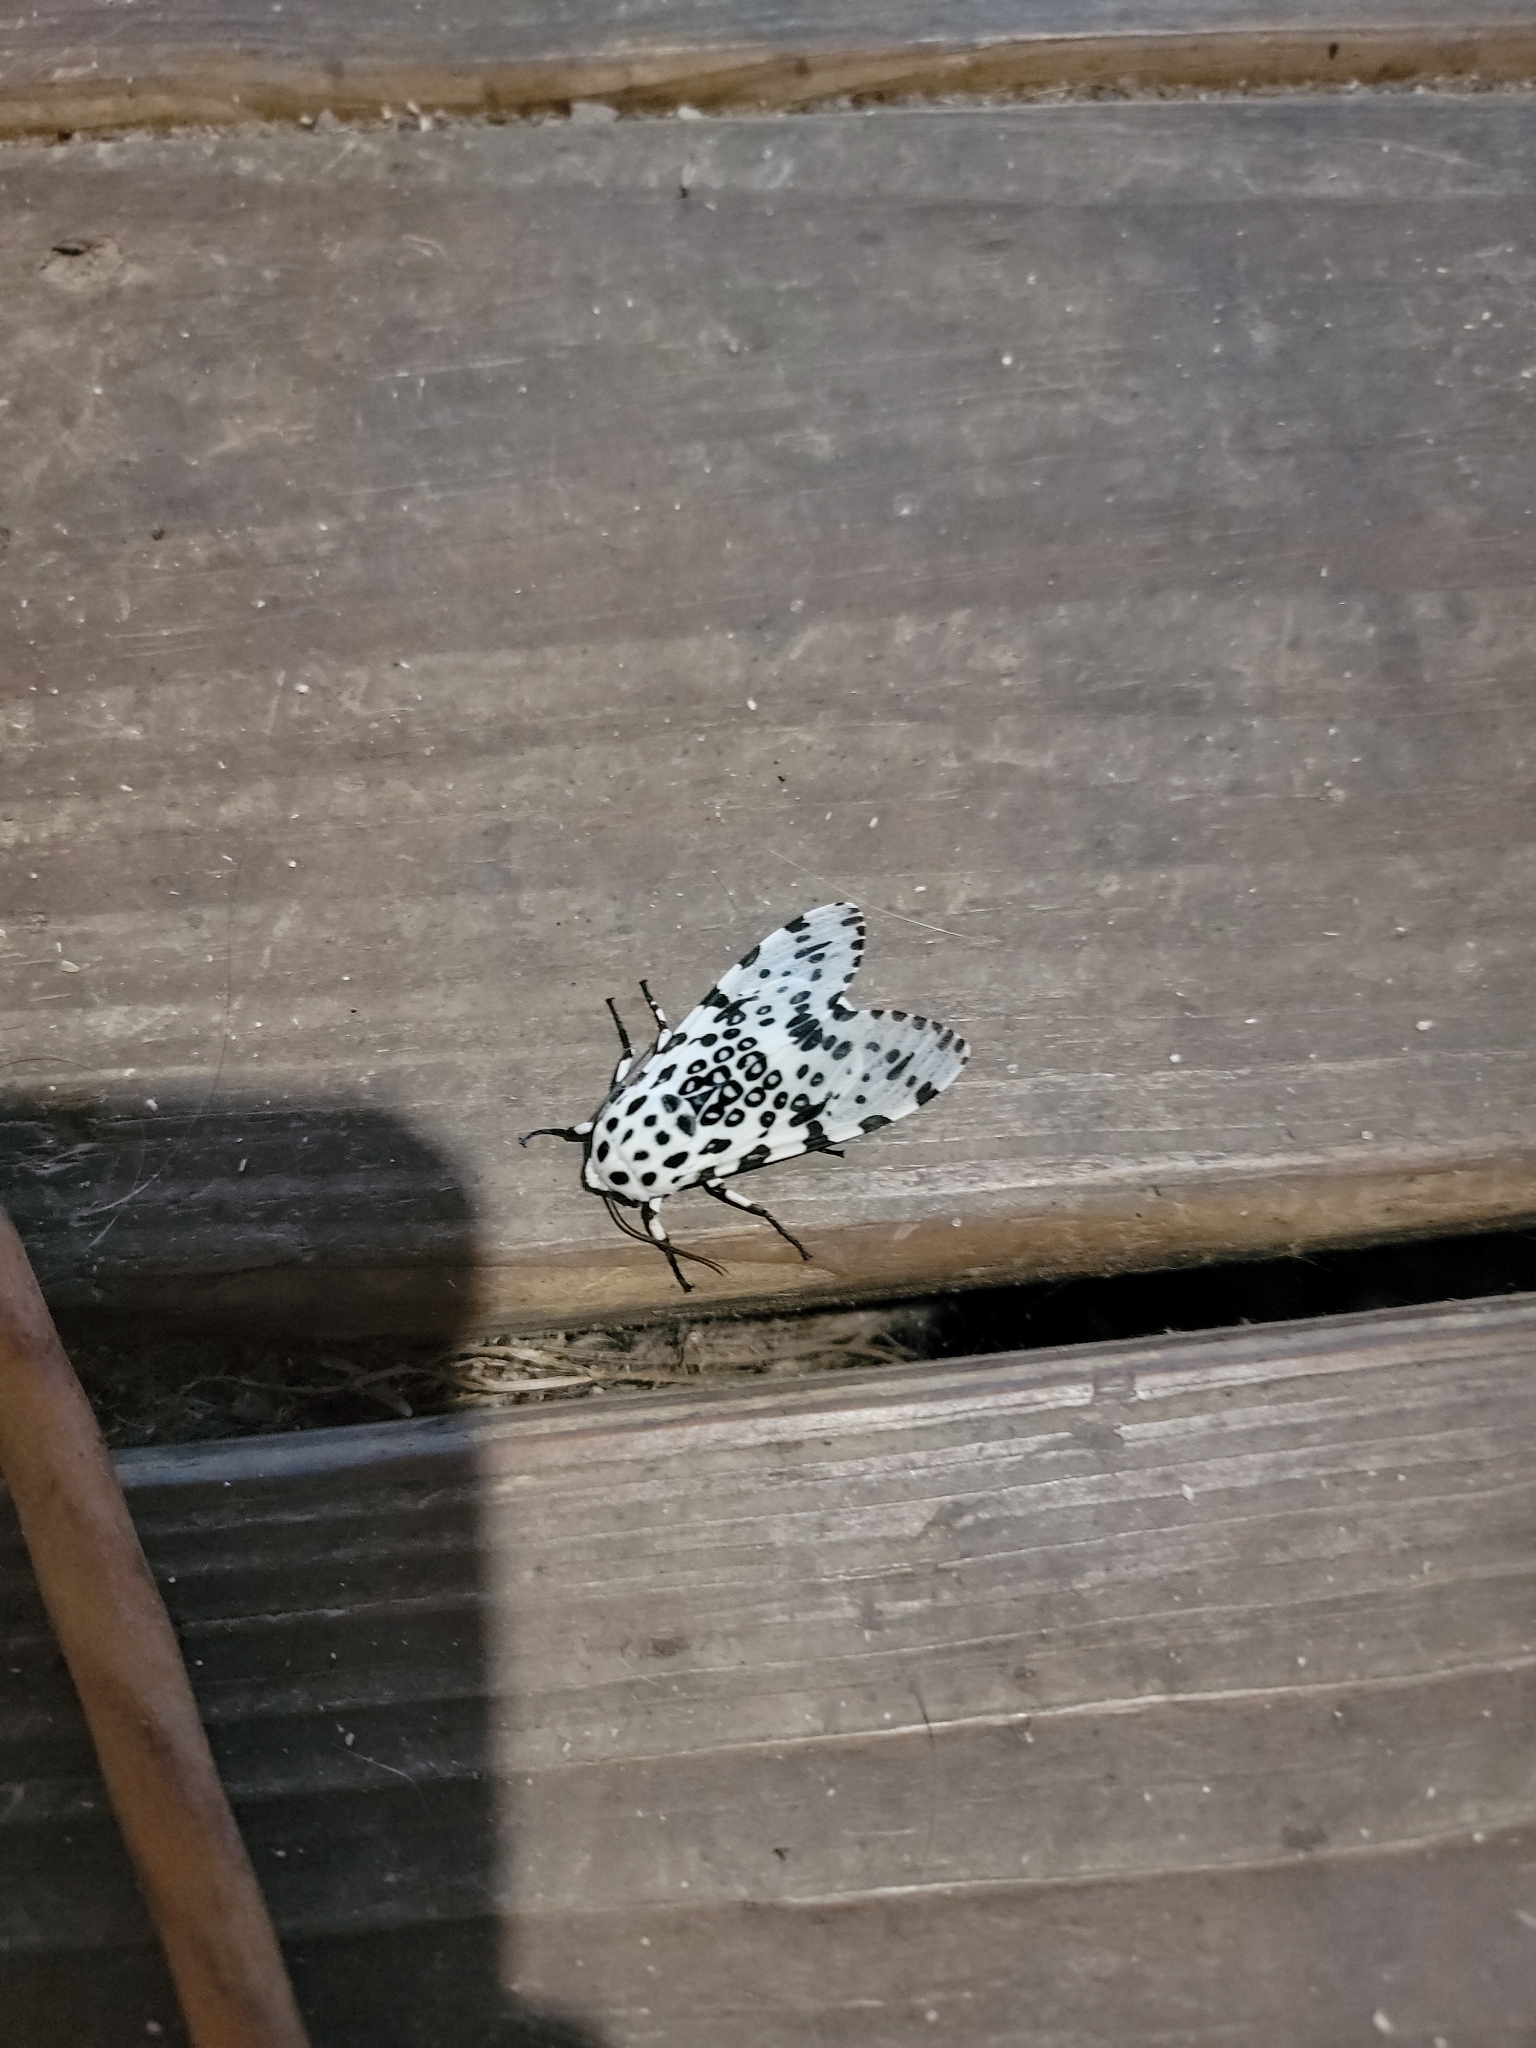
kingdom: Animalia
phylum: Arthropoda
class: Insecta
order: Lepidoptera
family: Erebidae
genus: Hypercompe
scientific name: Hypercompe scribonia
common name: Giant leopard moth
